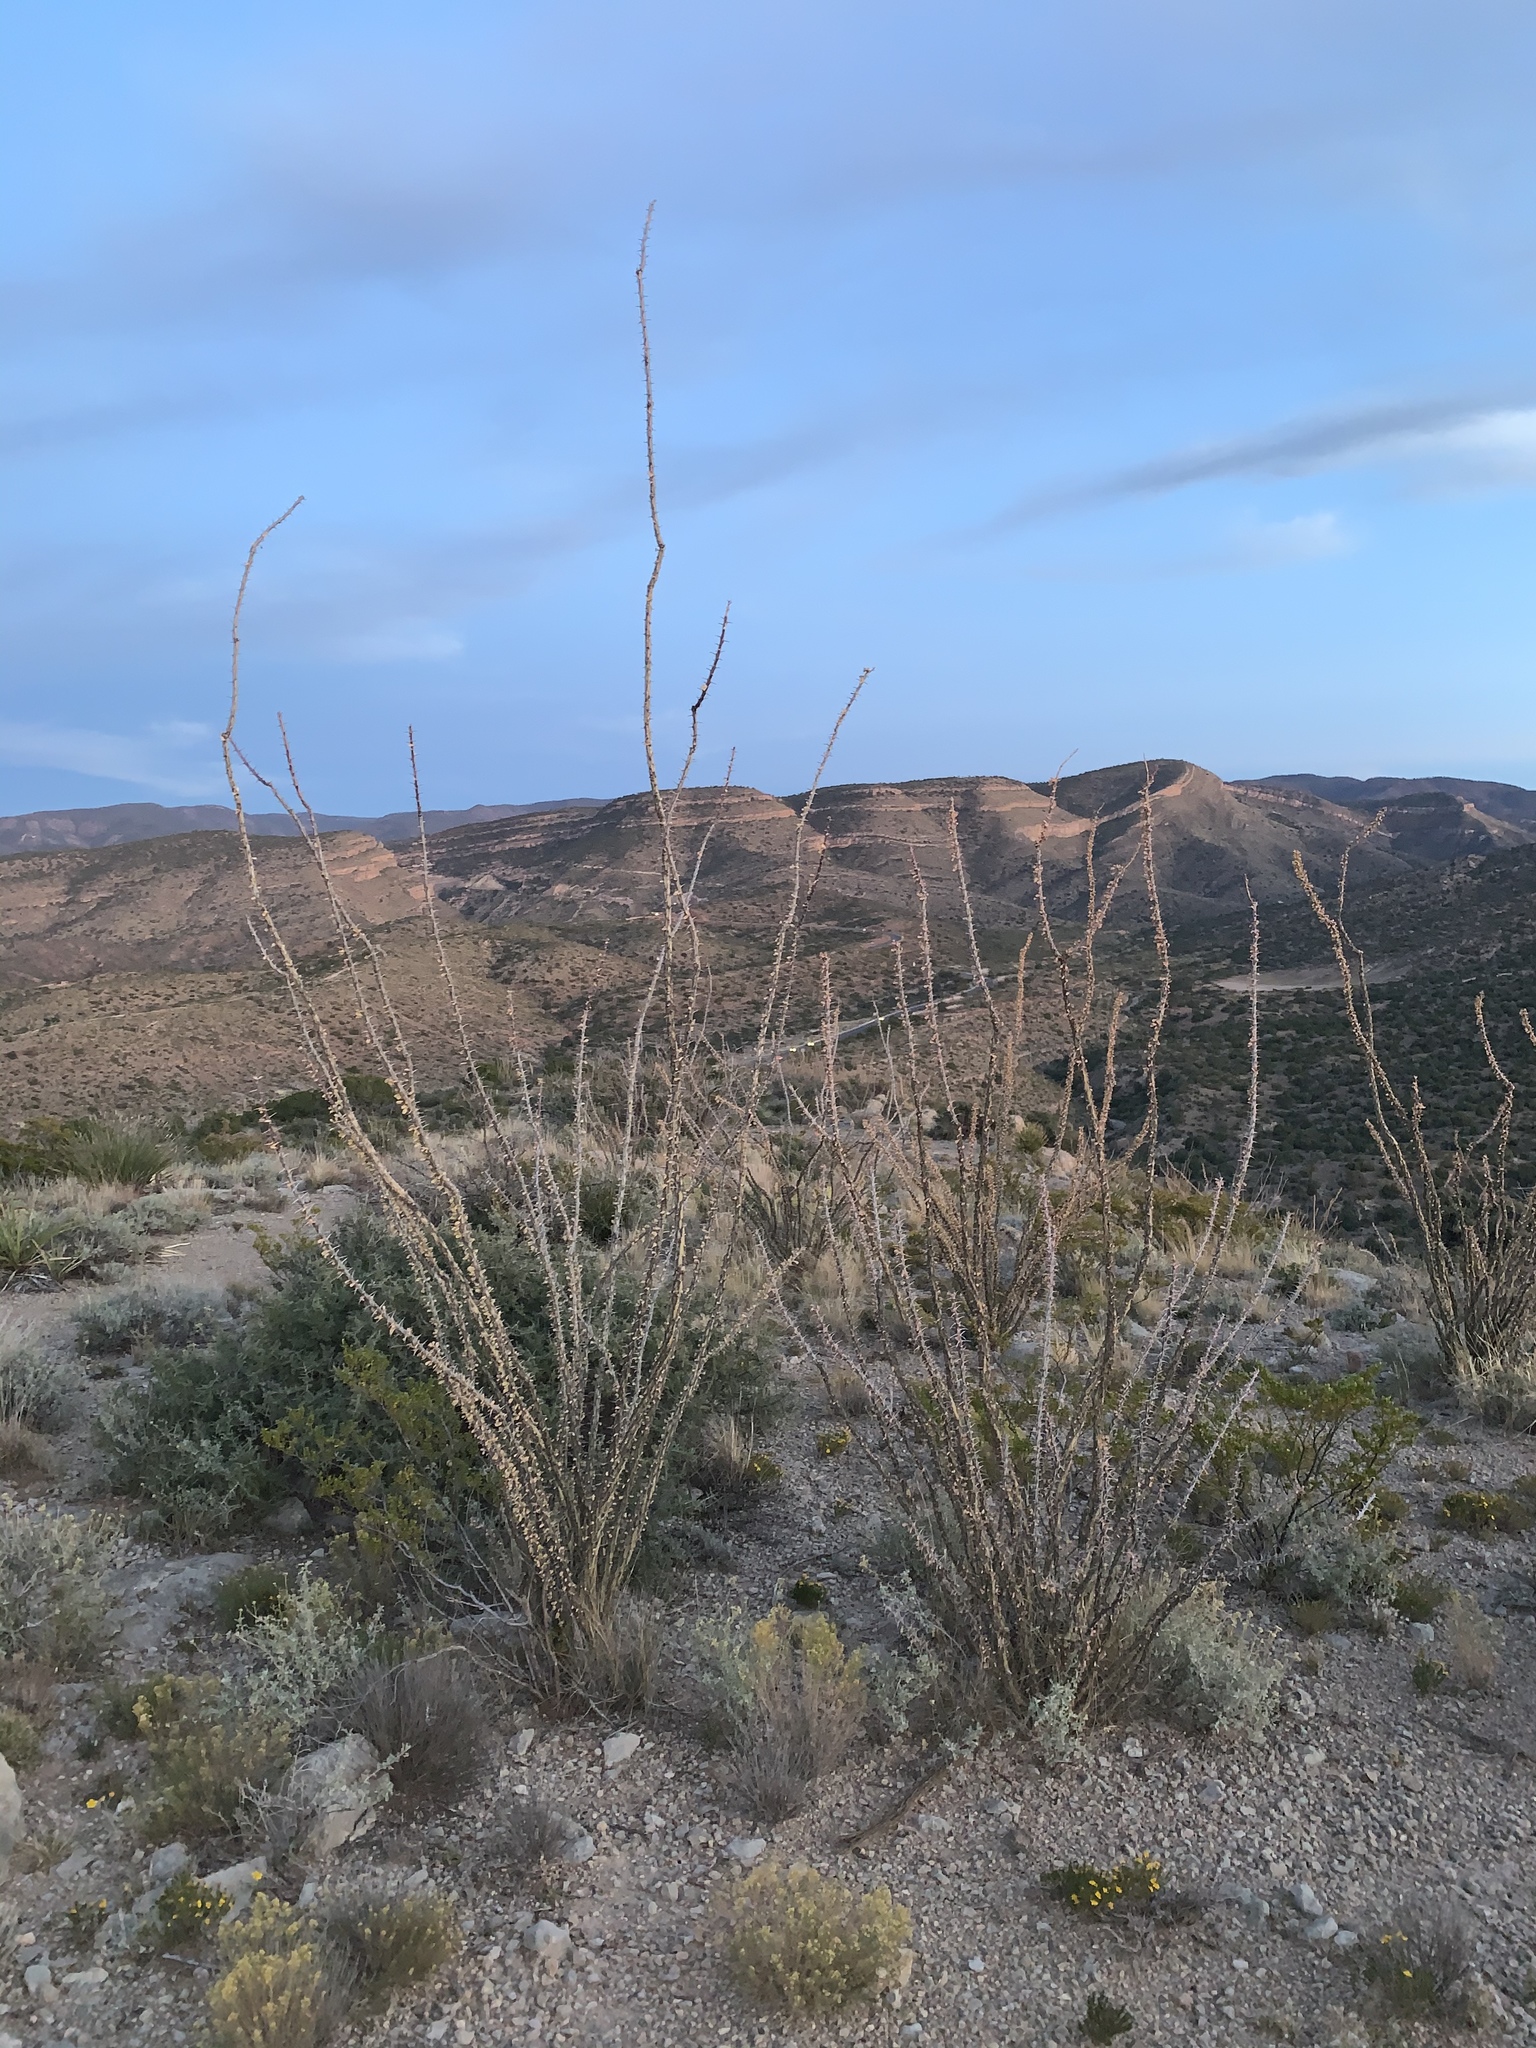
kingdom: Plantae
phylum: Tracheophyta
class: Magnoliopsida
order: Ericales
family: Fouquieriaceae
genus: Fouquieria
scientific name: Fouquieria splendens
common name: Vine-cactus
